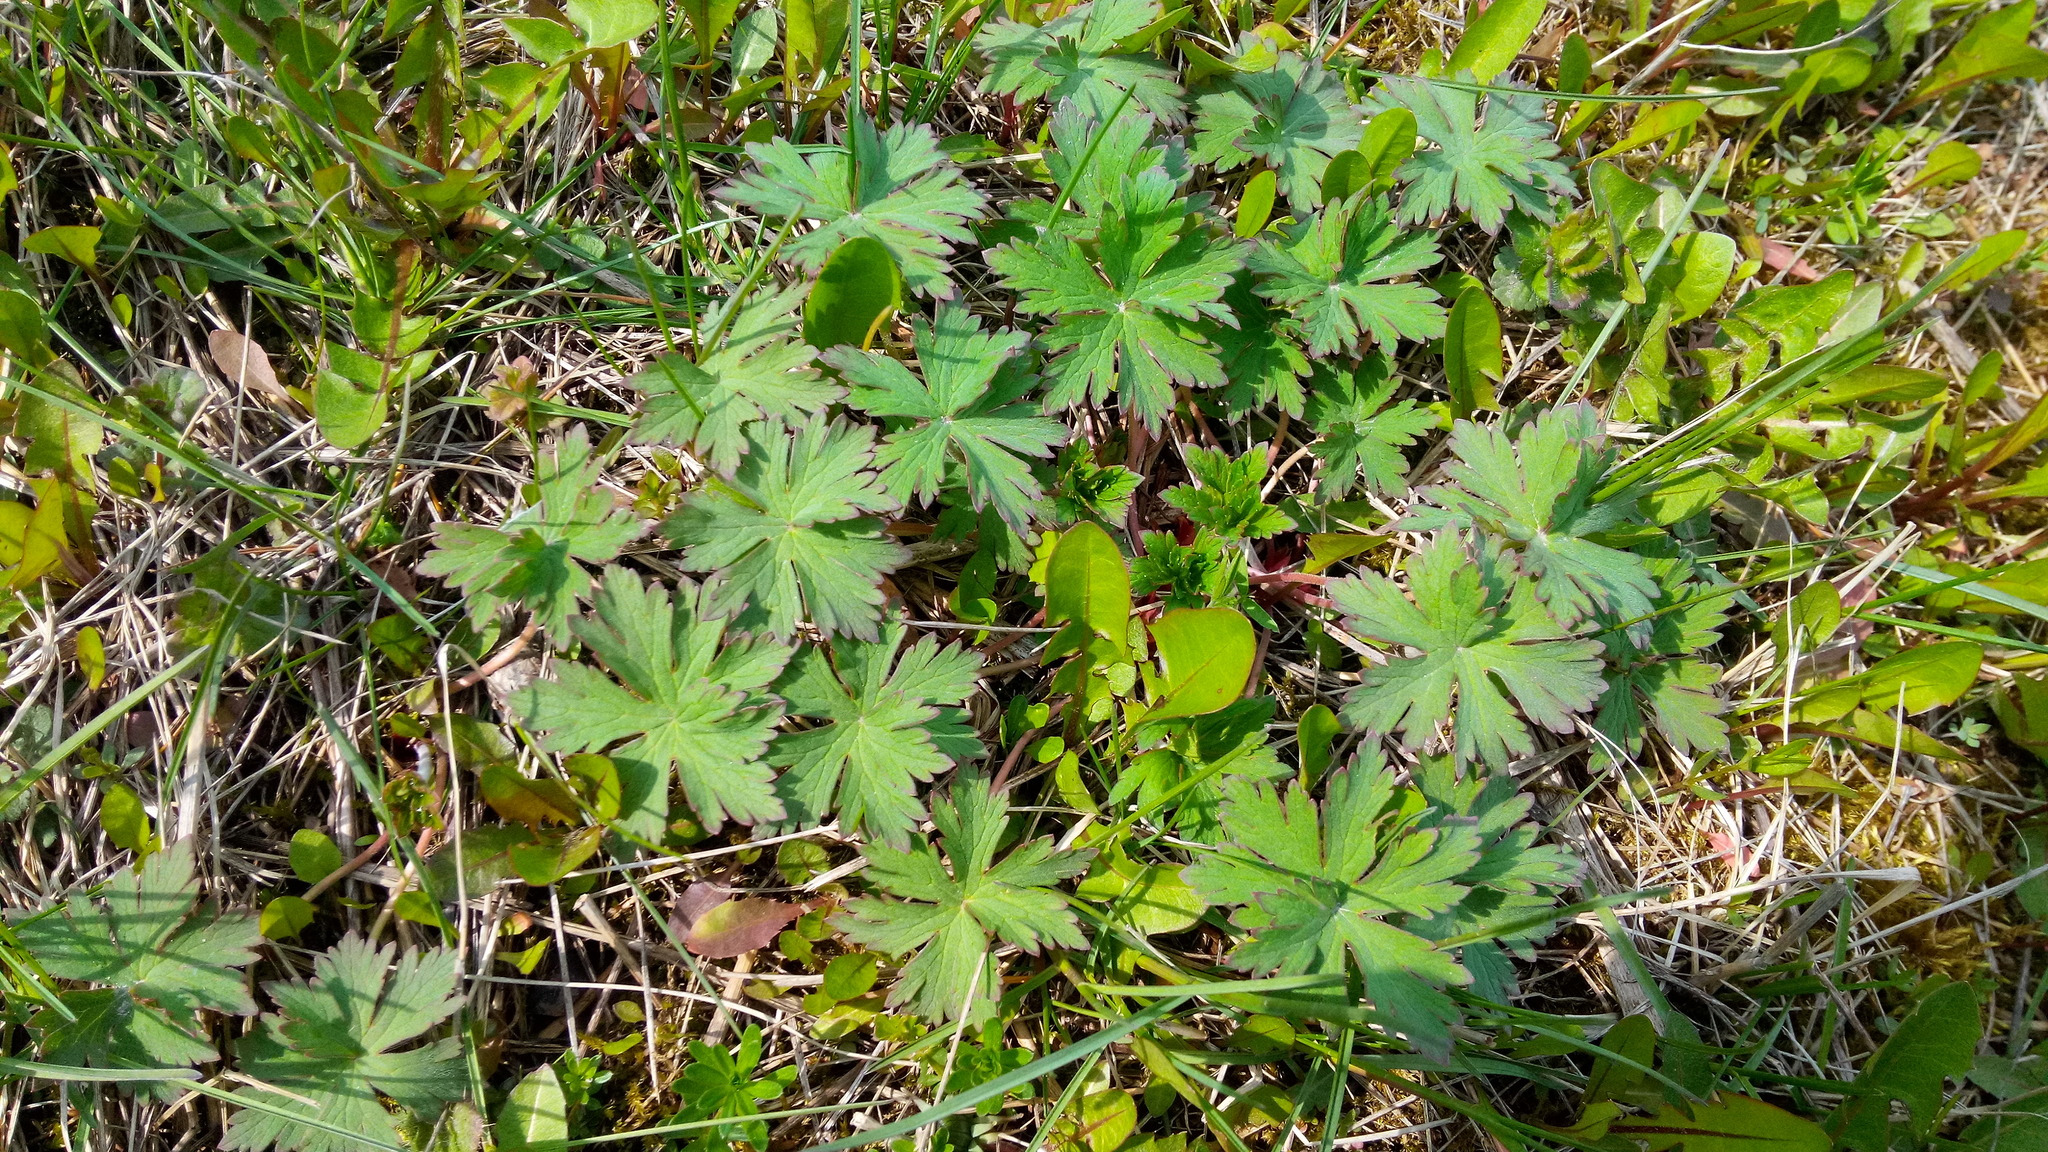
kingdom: Plantae
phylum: Tracheophyta
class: Magnoliopsida
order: Geraniales
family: Geraniaceae
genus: Geranium
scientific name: Geranium pratense
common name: Meadow crane's-bill
